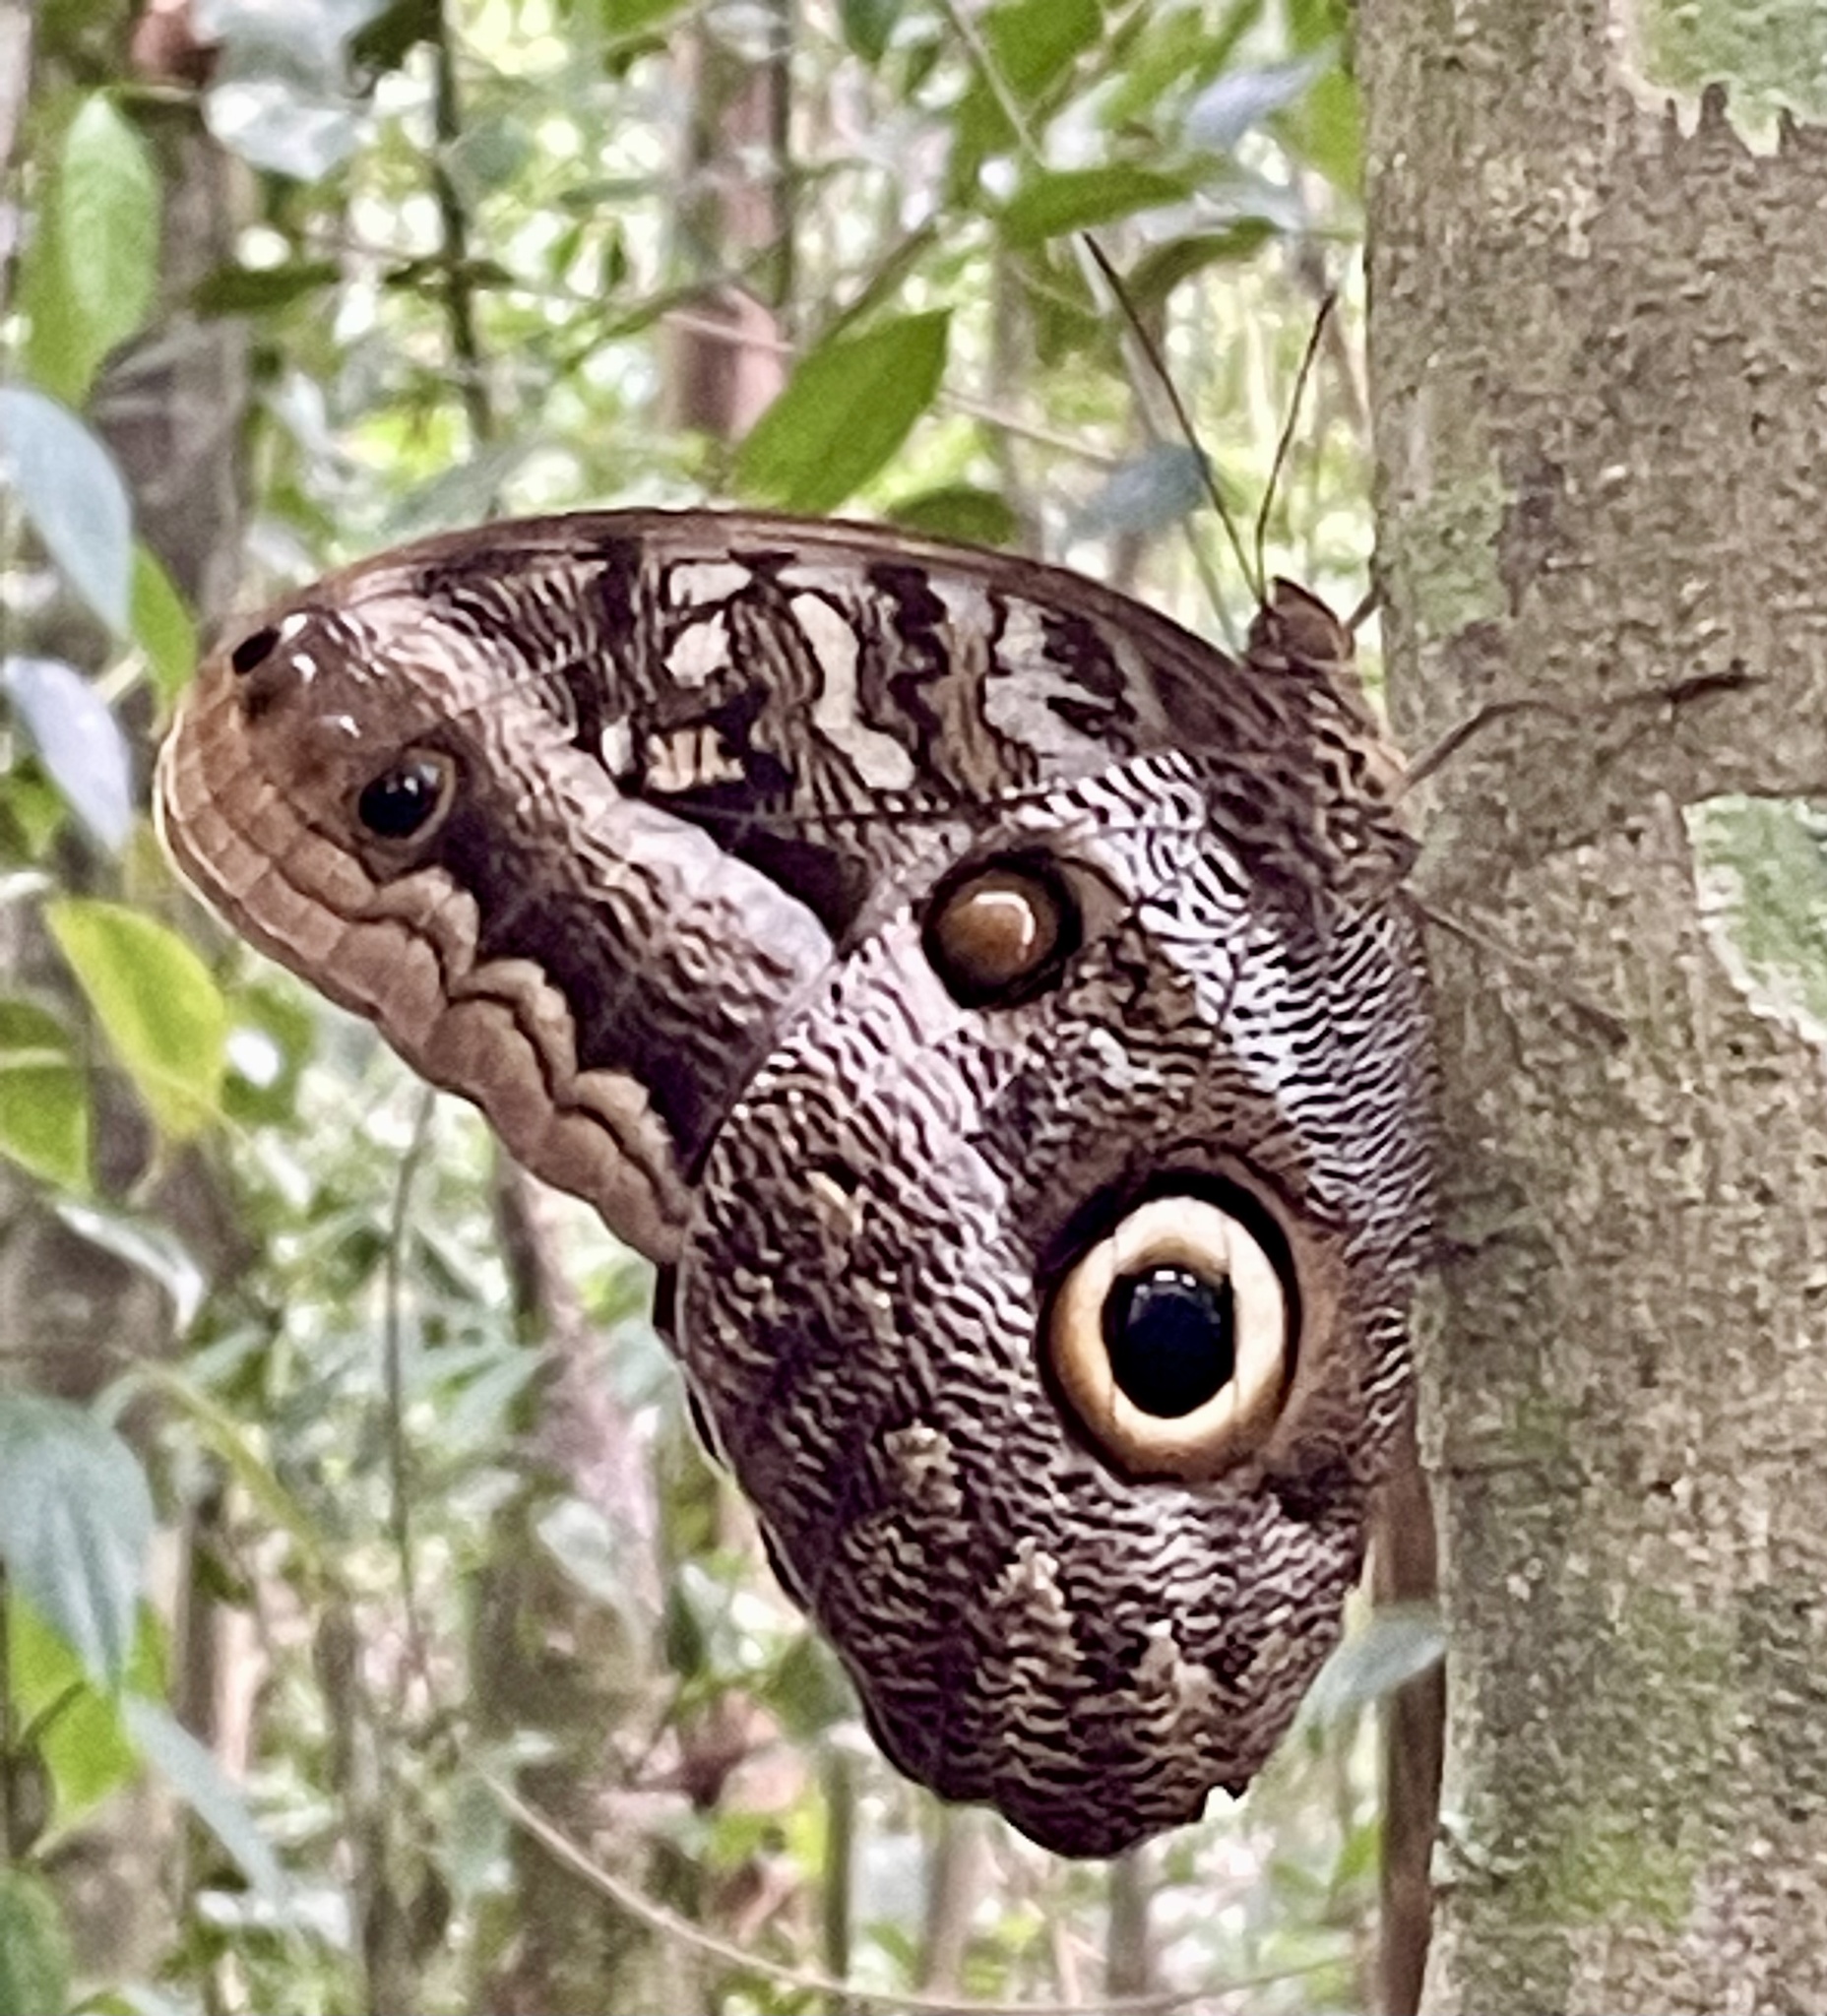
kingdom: Animalia
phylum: Arthropoda
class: Insecta
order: Lepidoptera
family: Nymphalidae
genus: Caligo
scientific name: Caligo idomeneus
